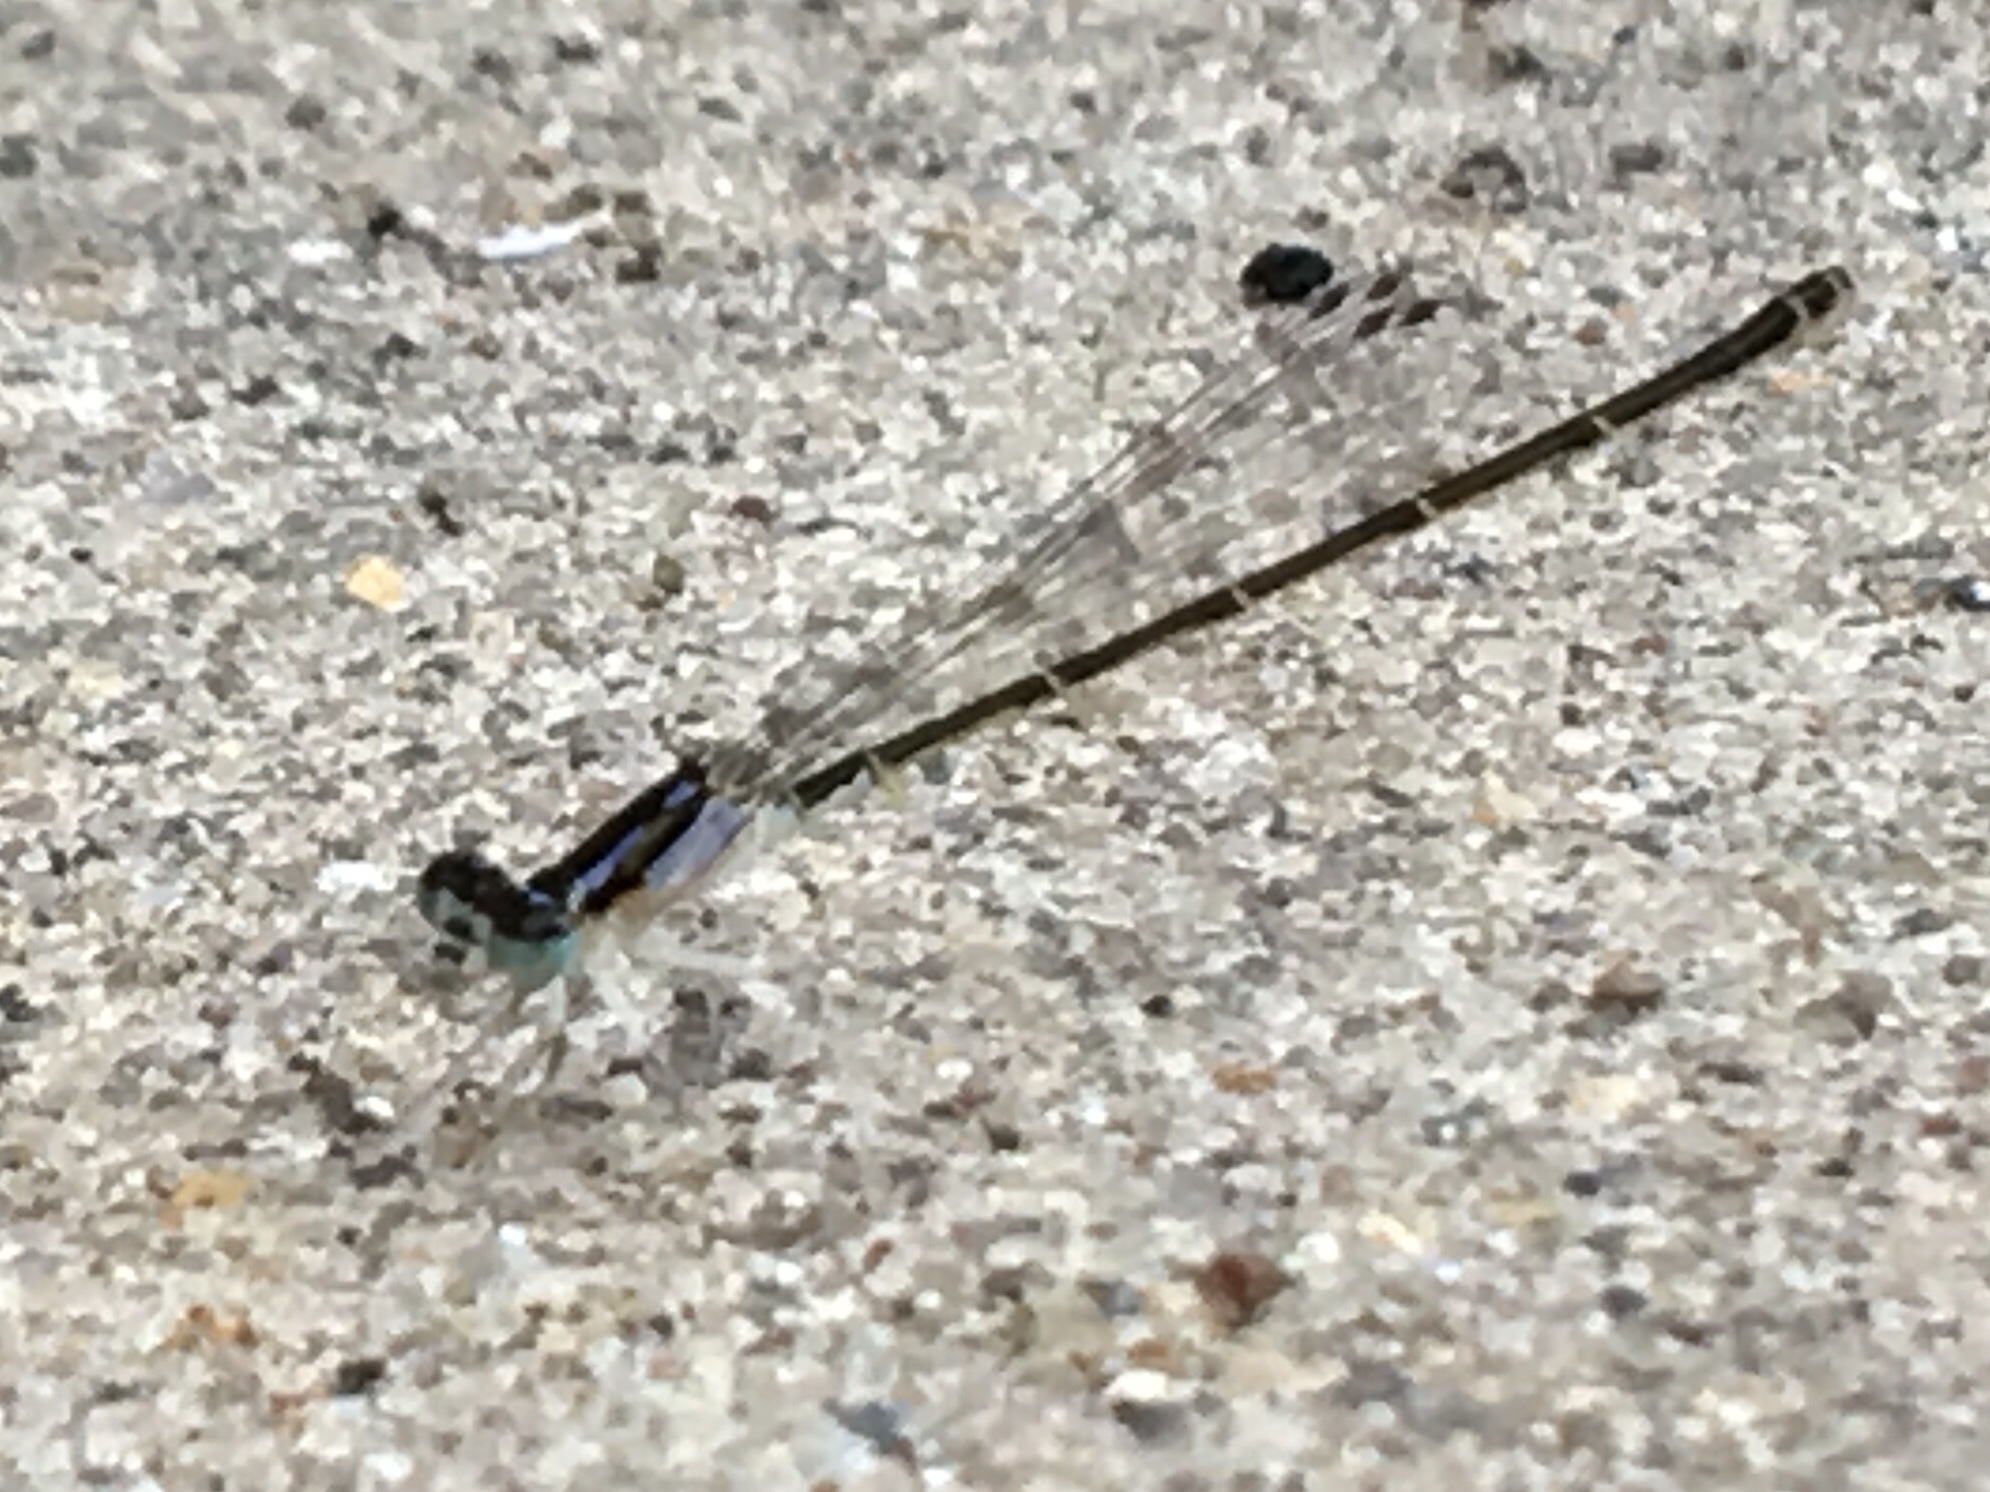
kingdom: Animalia
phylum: Arthropoda
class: Insecta
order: Odonata
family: Coenagrionidae
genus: Ischnura
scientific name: Ischnura posita
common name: Fragile forktail
